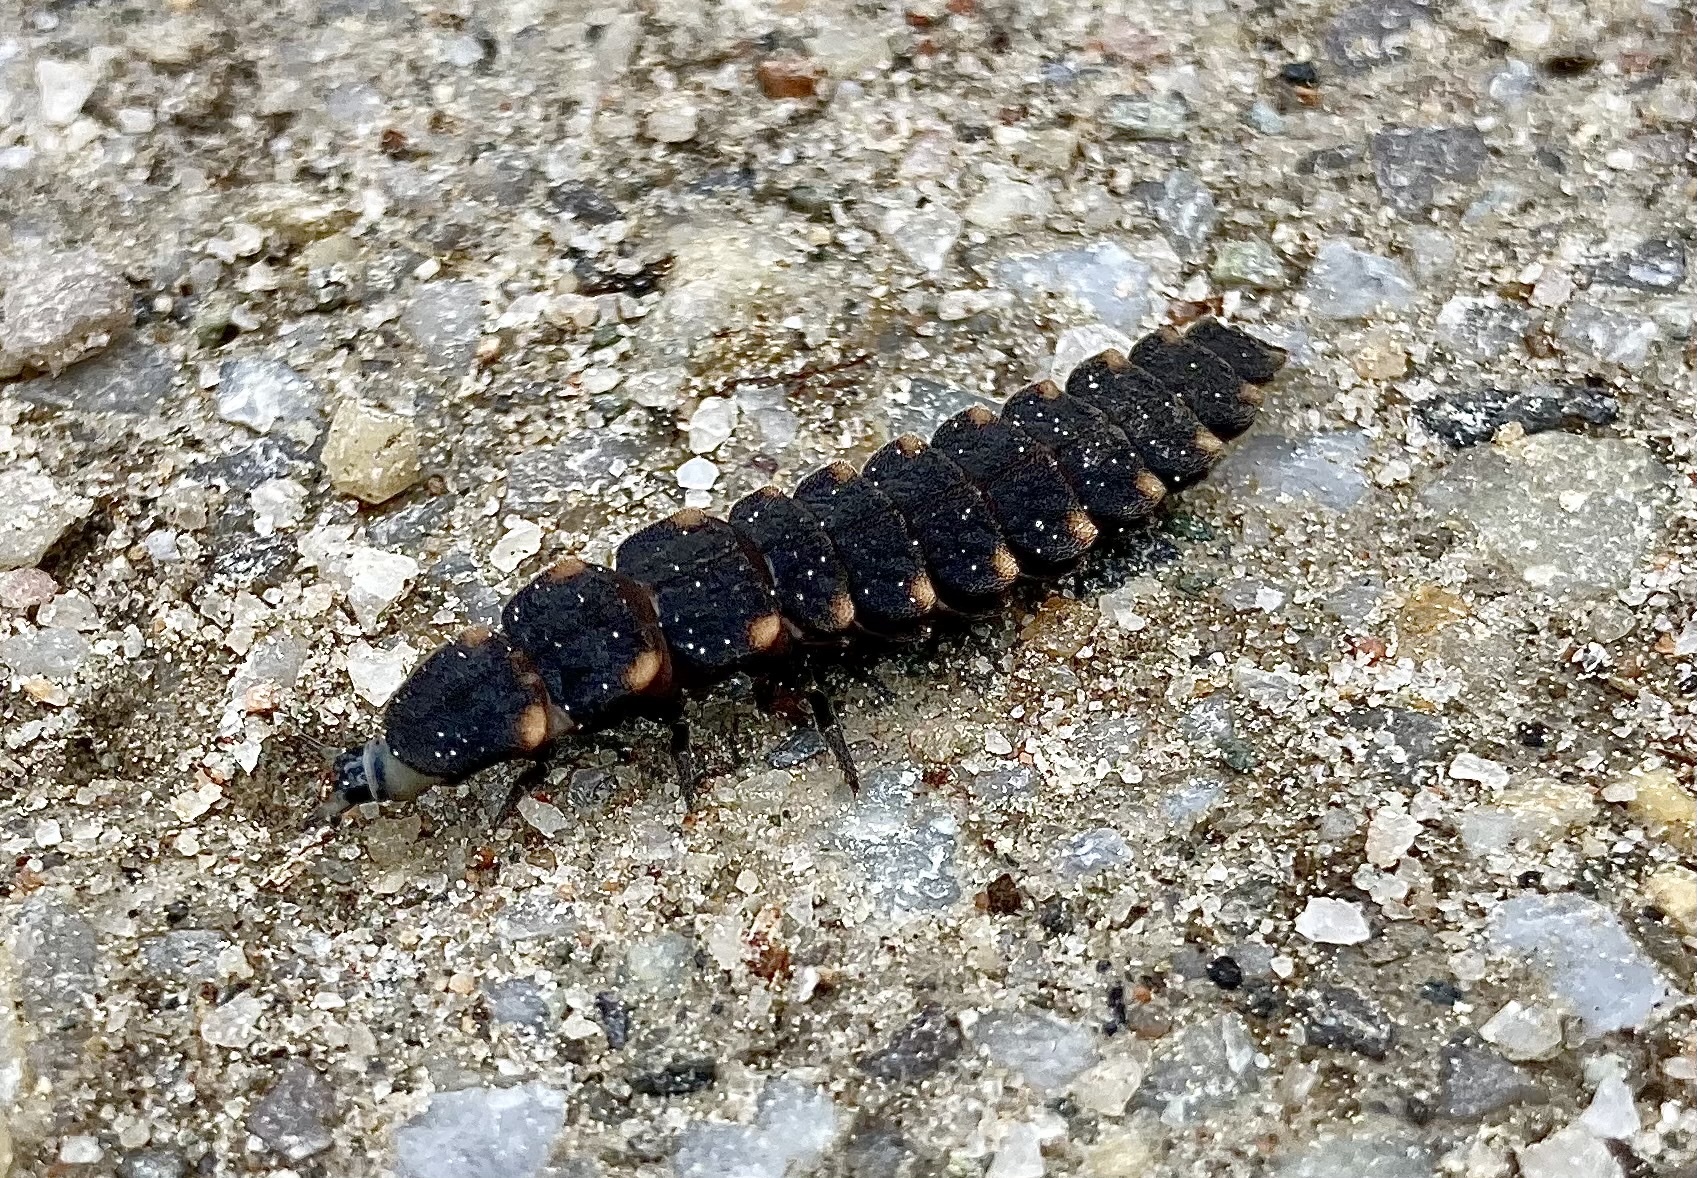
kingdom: Animalia
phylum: Arthropoda
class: Insecta
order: Coleoptera
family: Lampyridae
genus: Lampyris
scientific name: Lampyris noctiluca
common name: Glow-worm
